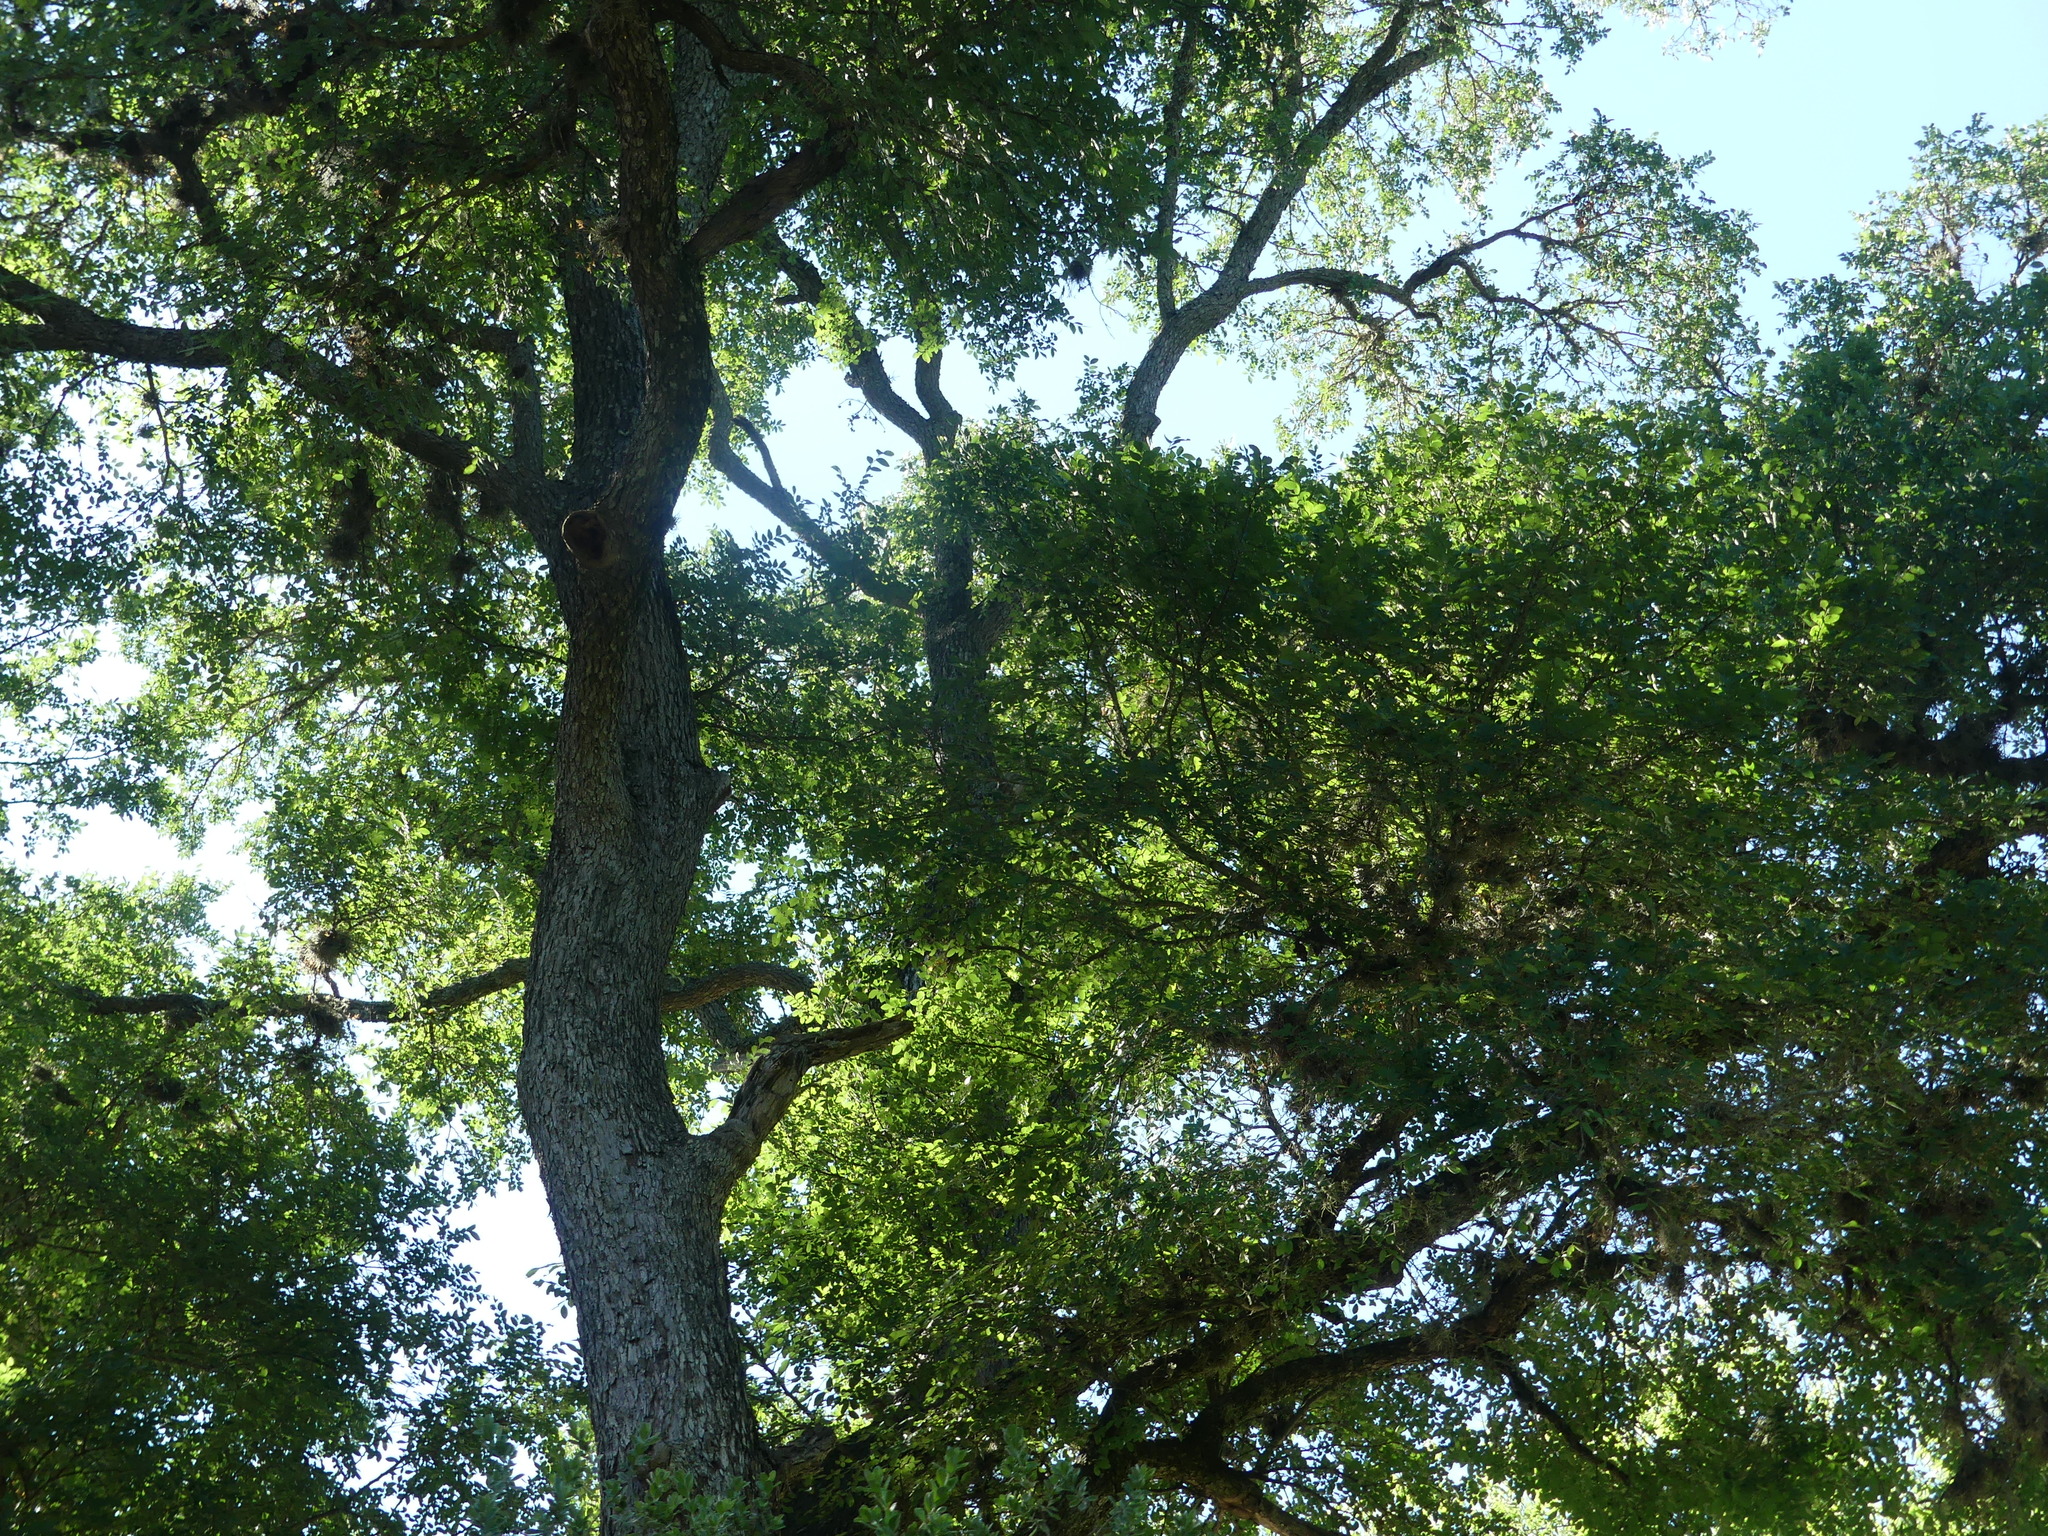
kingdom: Plantae
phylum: Tracheophyta
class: Magnoliopsida
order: Rosales
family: Ulmaceae
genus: Ulmus
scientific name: Ulmus crassifolia
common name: Basket elm
